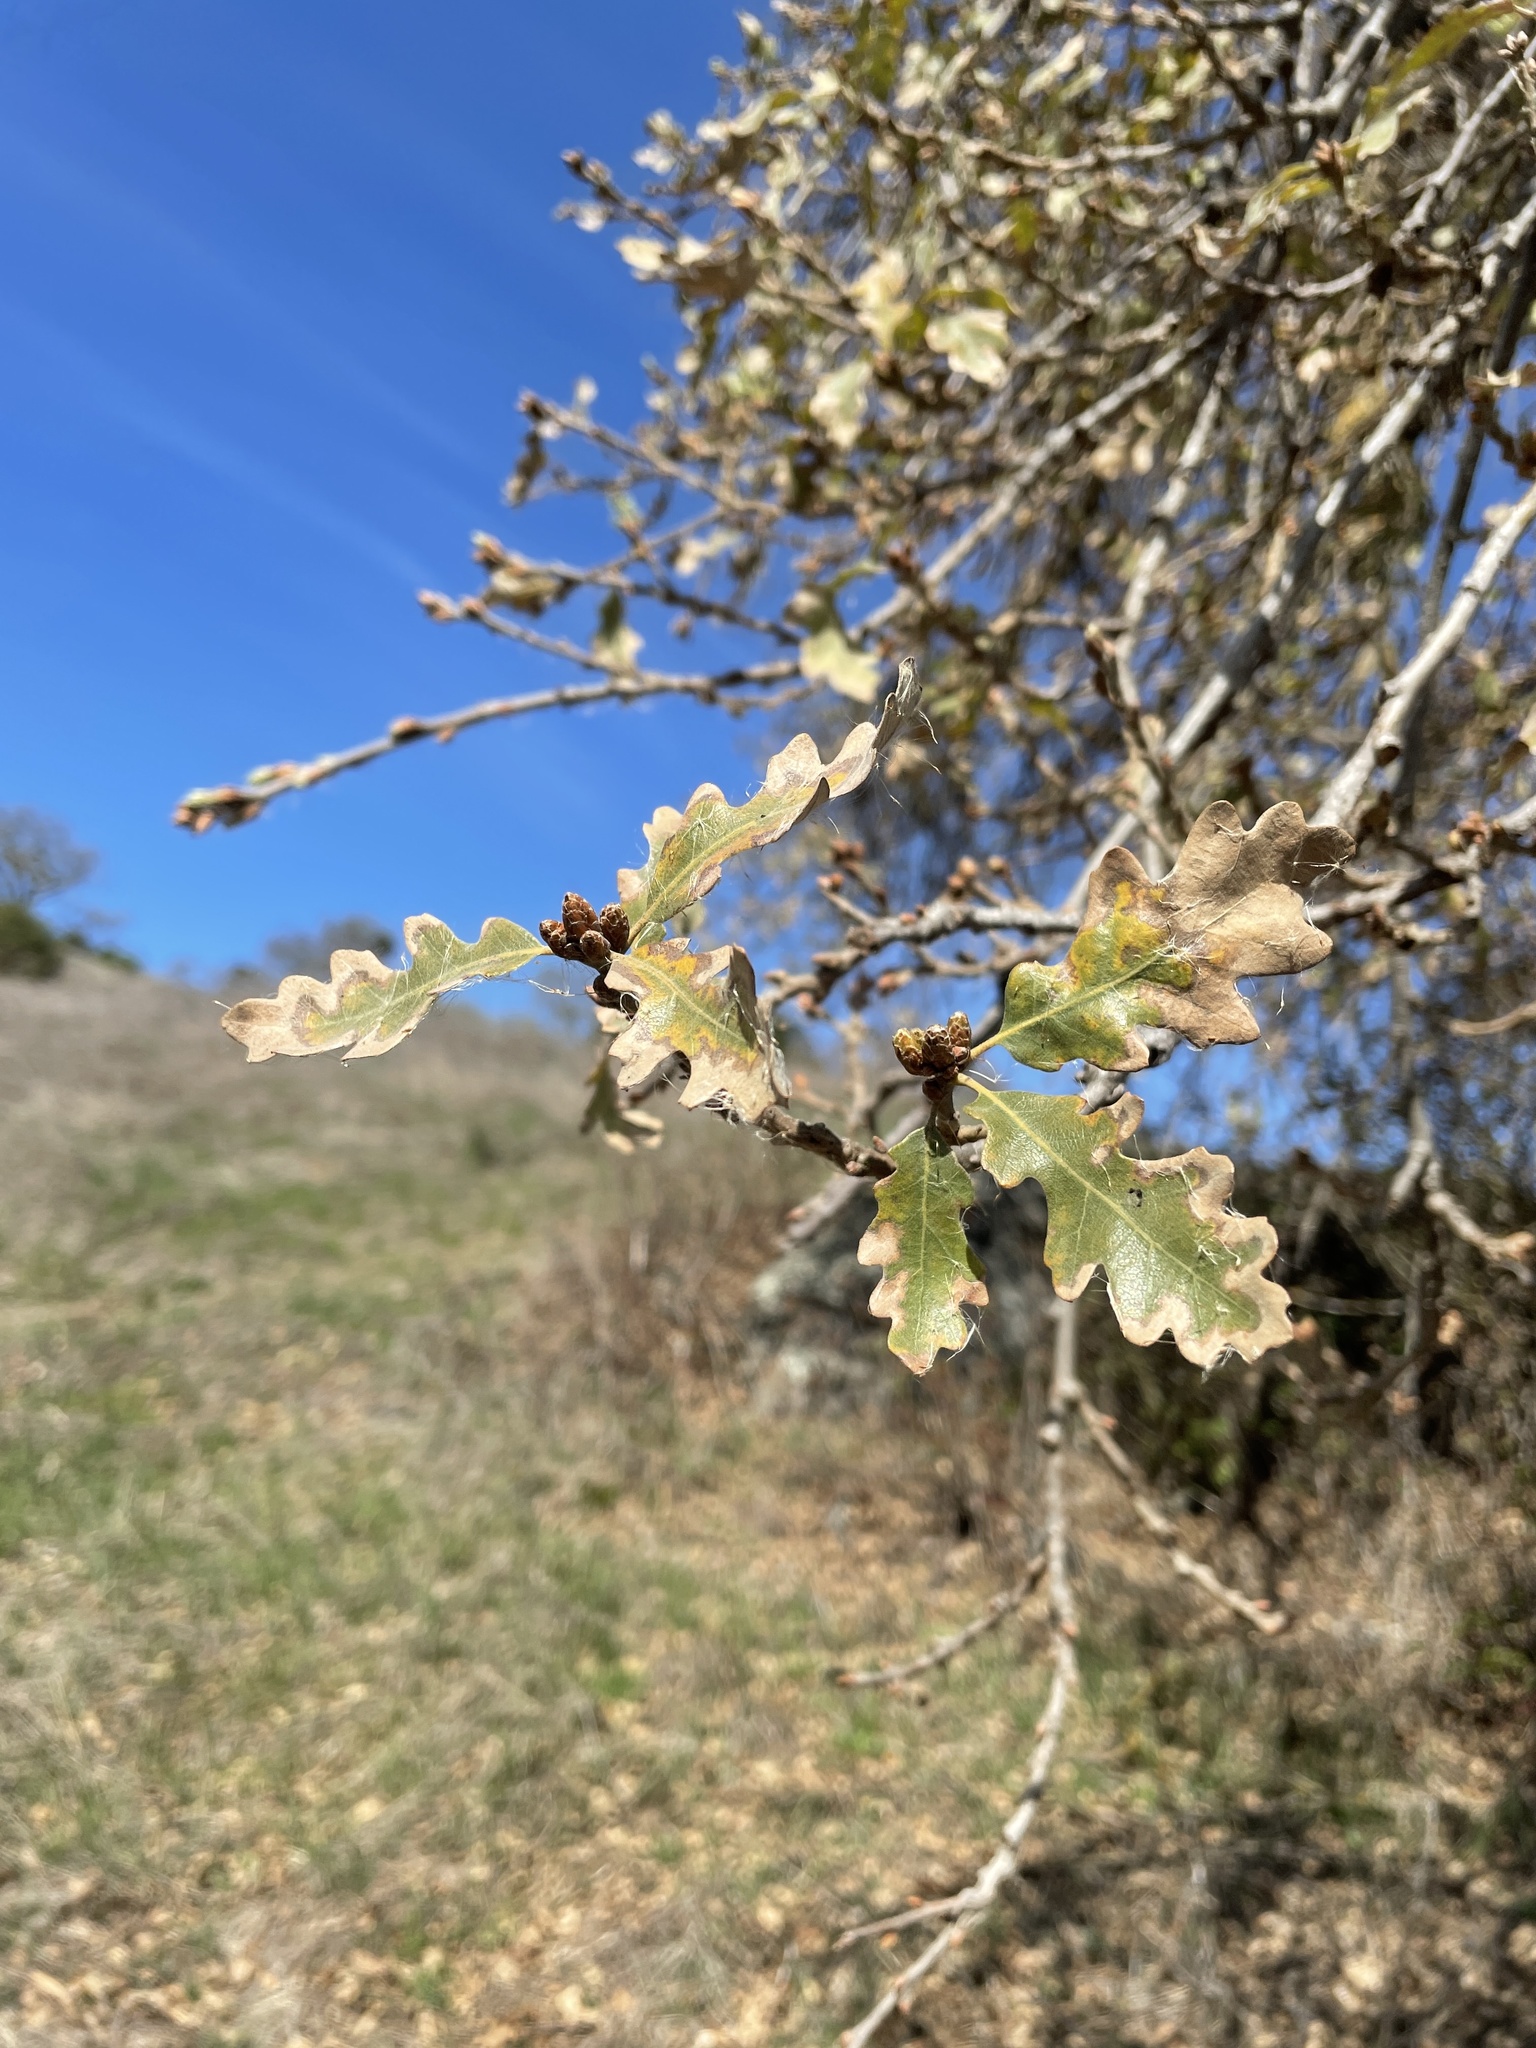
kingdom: Plantae
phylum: Tracheophyta
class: Magnoliopsida
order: Fagales
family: Fagaceae
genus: Quercus
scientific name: Quercus lobata
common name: Valley oak
